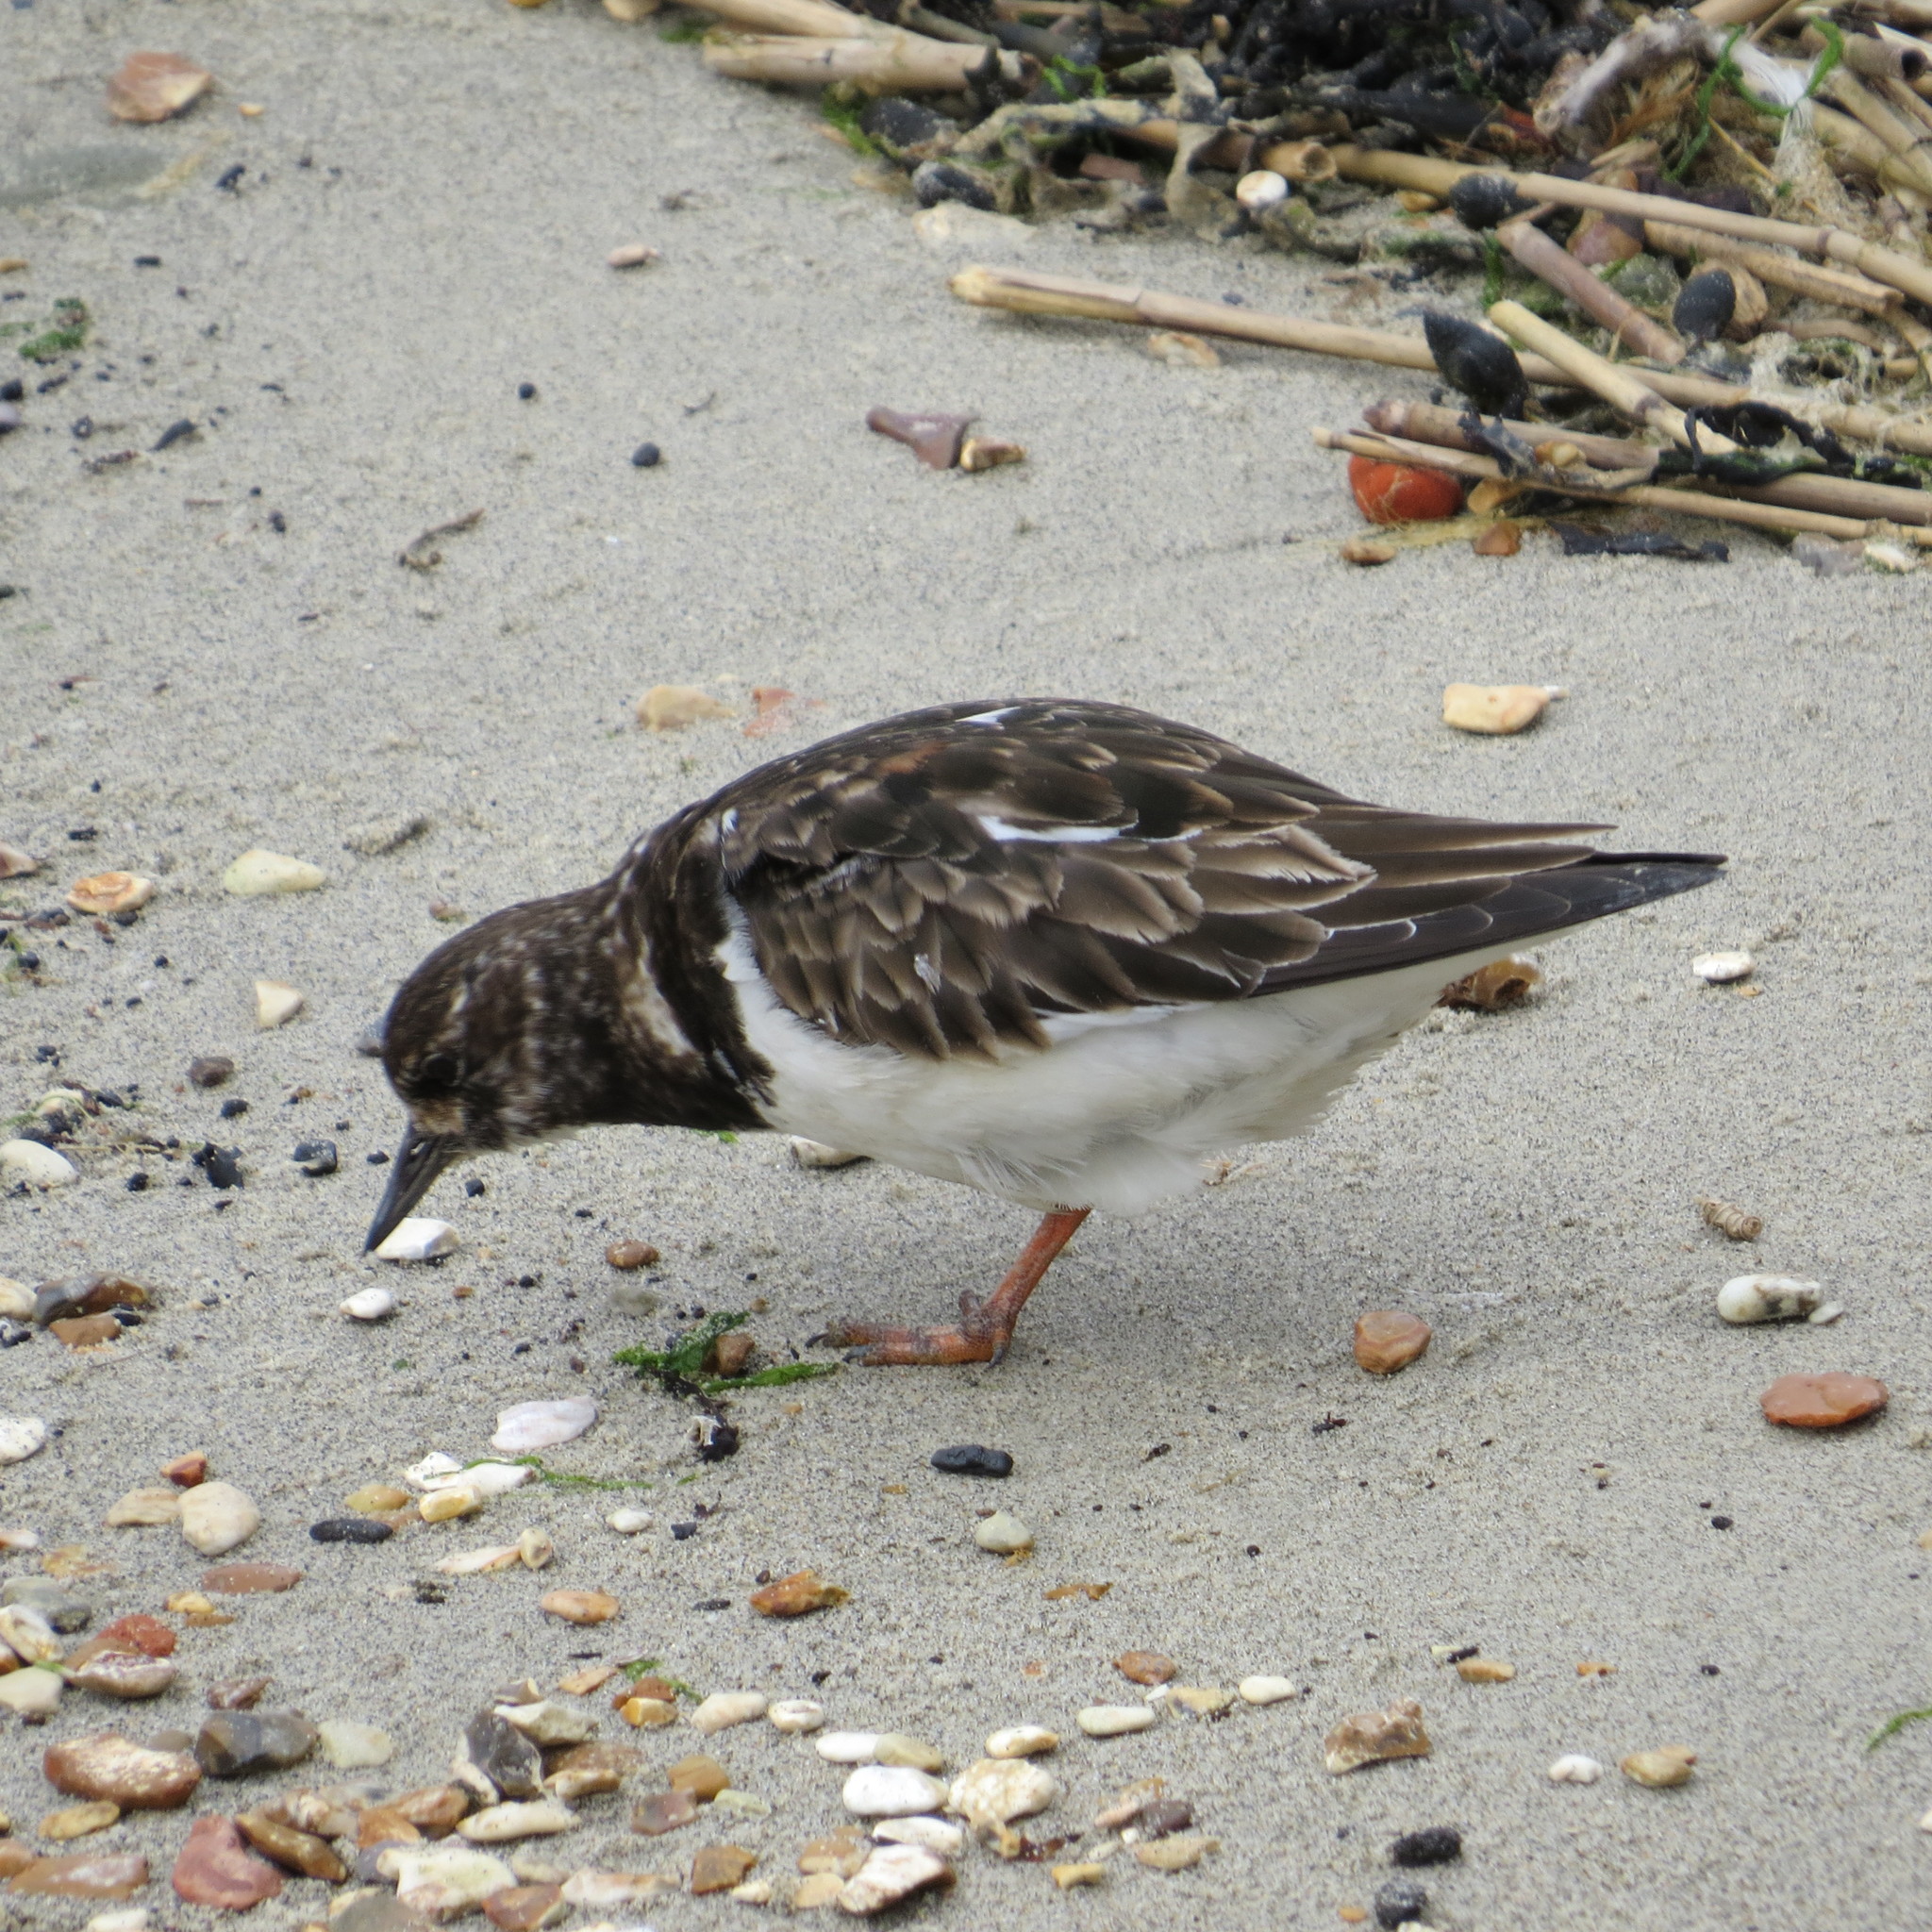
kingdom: Animalia
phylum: Chordata
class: Aves
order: Charadriiformes
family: Scolopacidae
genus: Arenaria
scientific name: Arenaria interpres
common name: Ruddy turnstone
